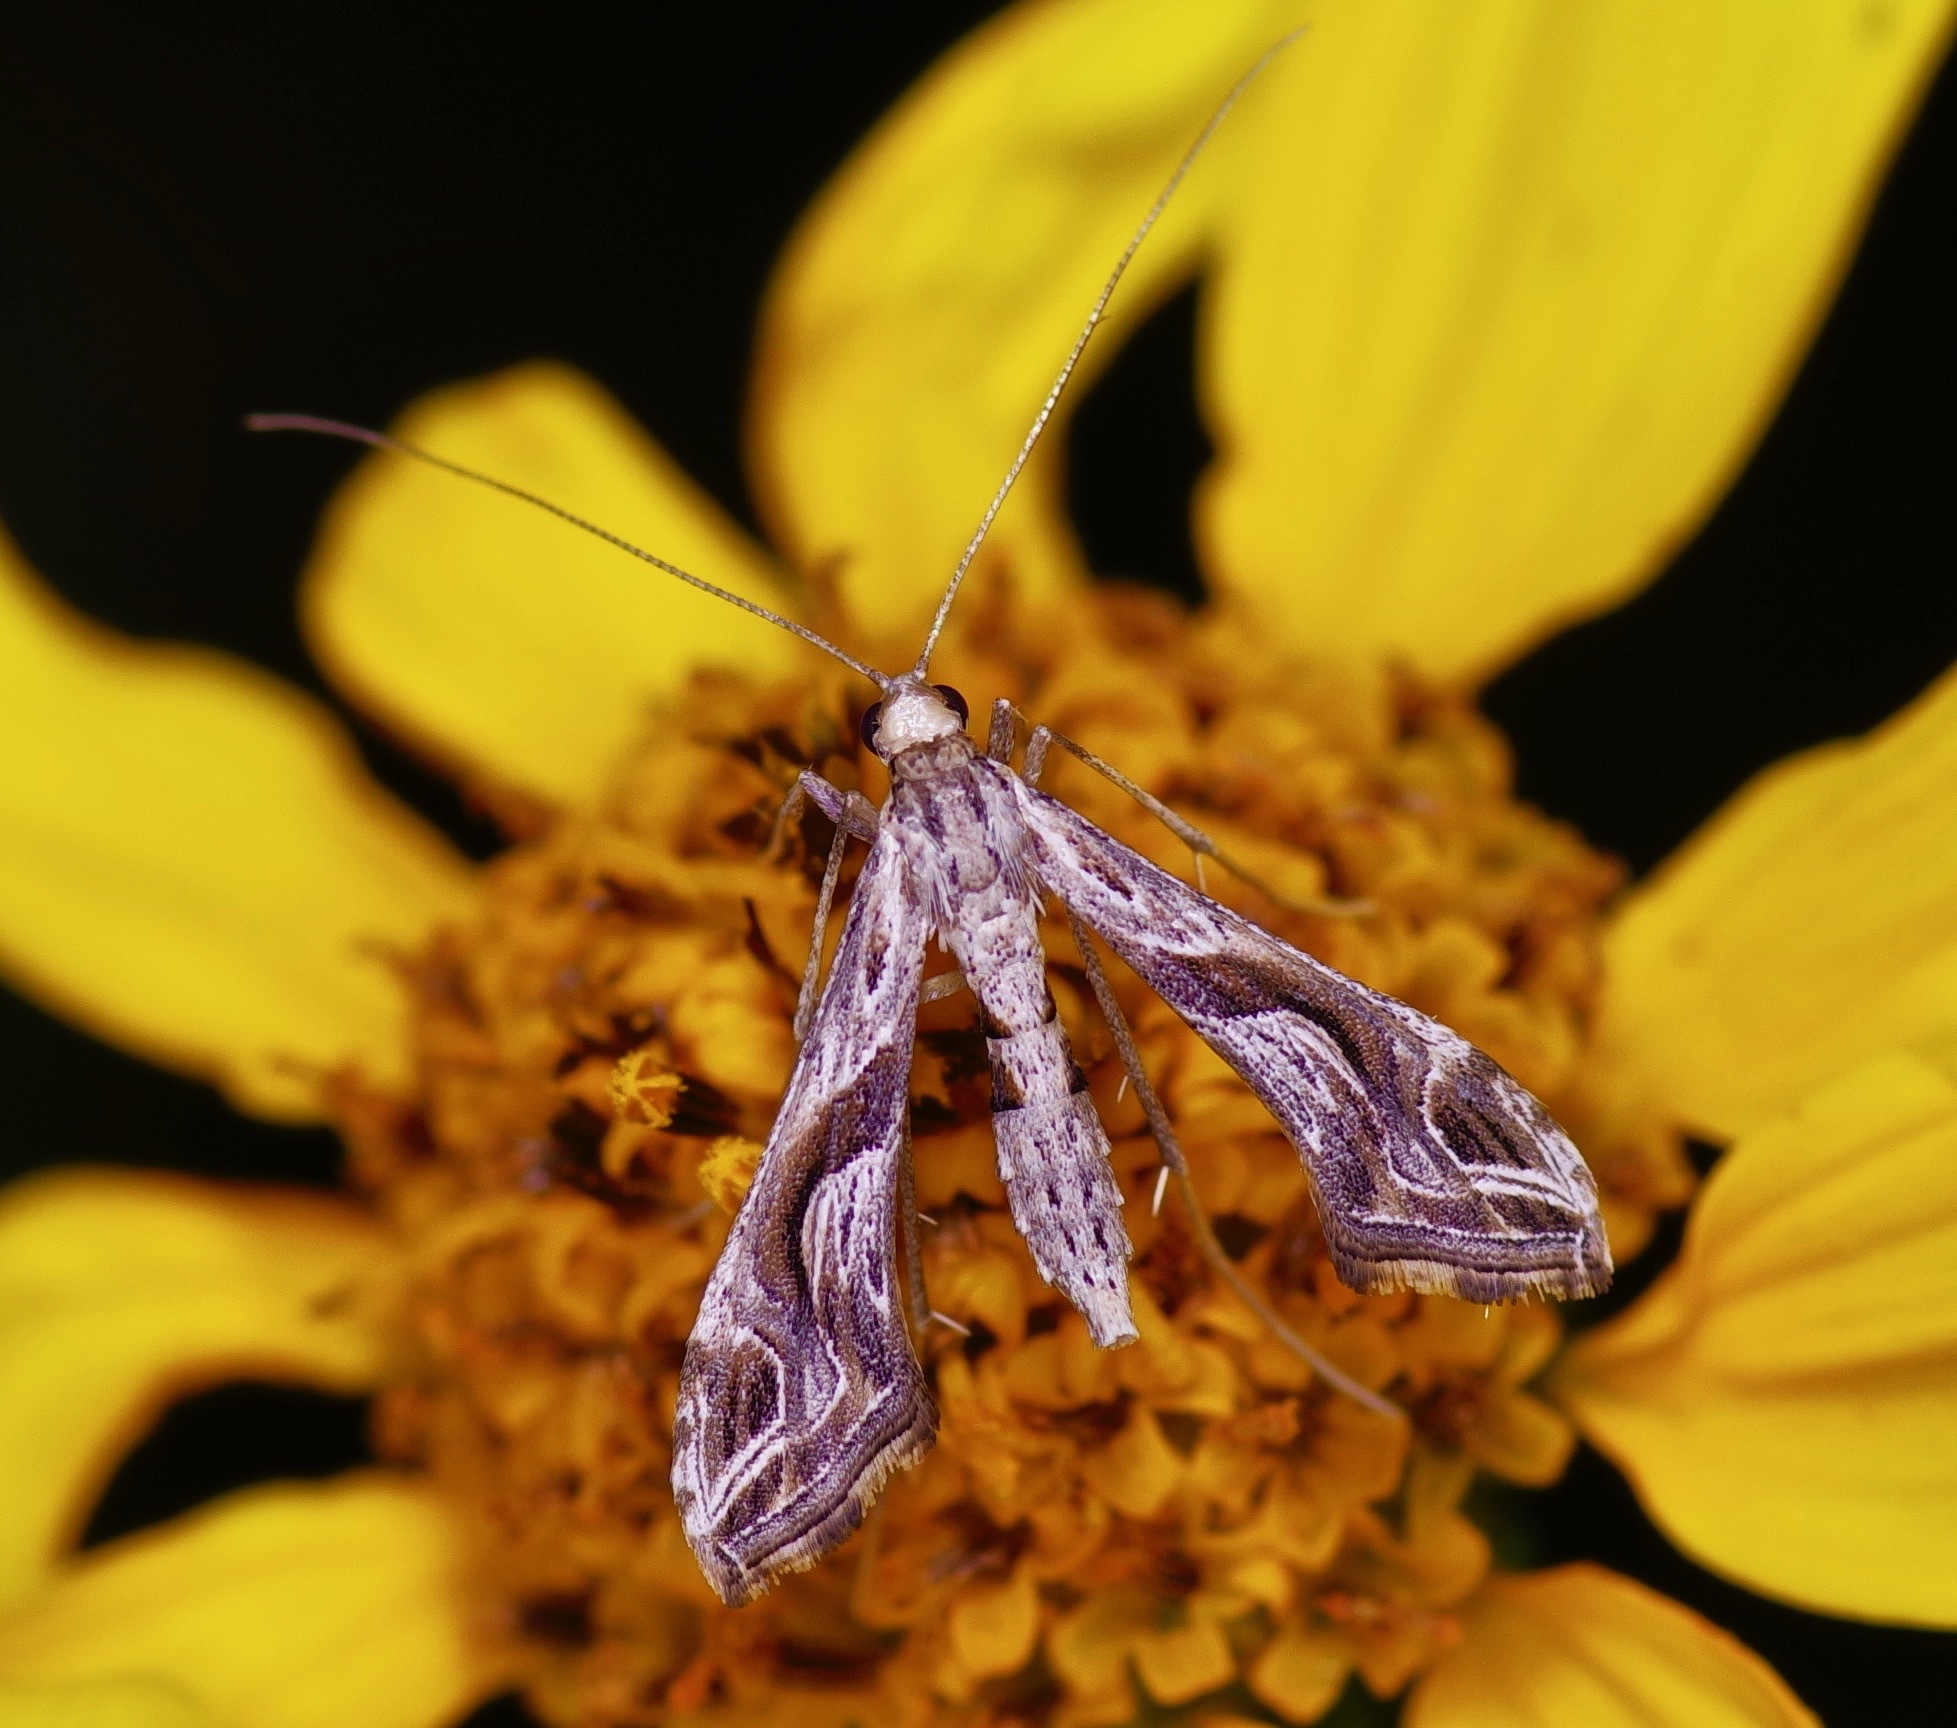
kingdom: Animalia
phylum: Arthropoda
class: Insecta
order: Lepidoptera
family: Crambidae
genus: Lineodes
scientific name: Lineodes integra
